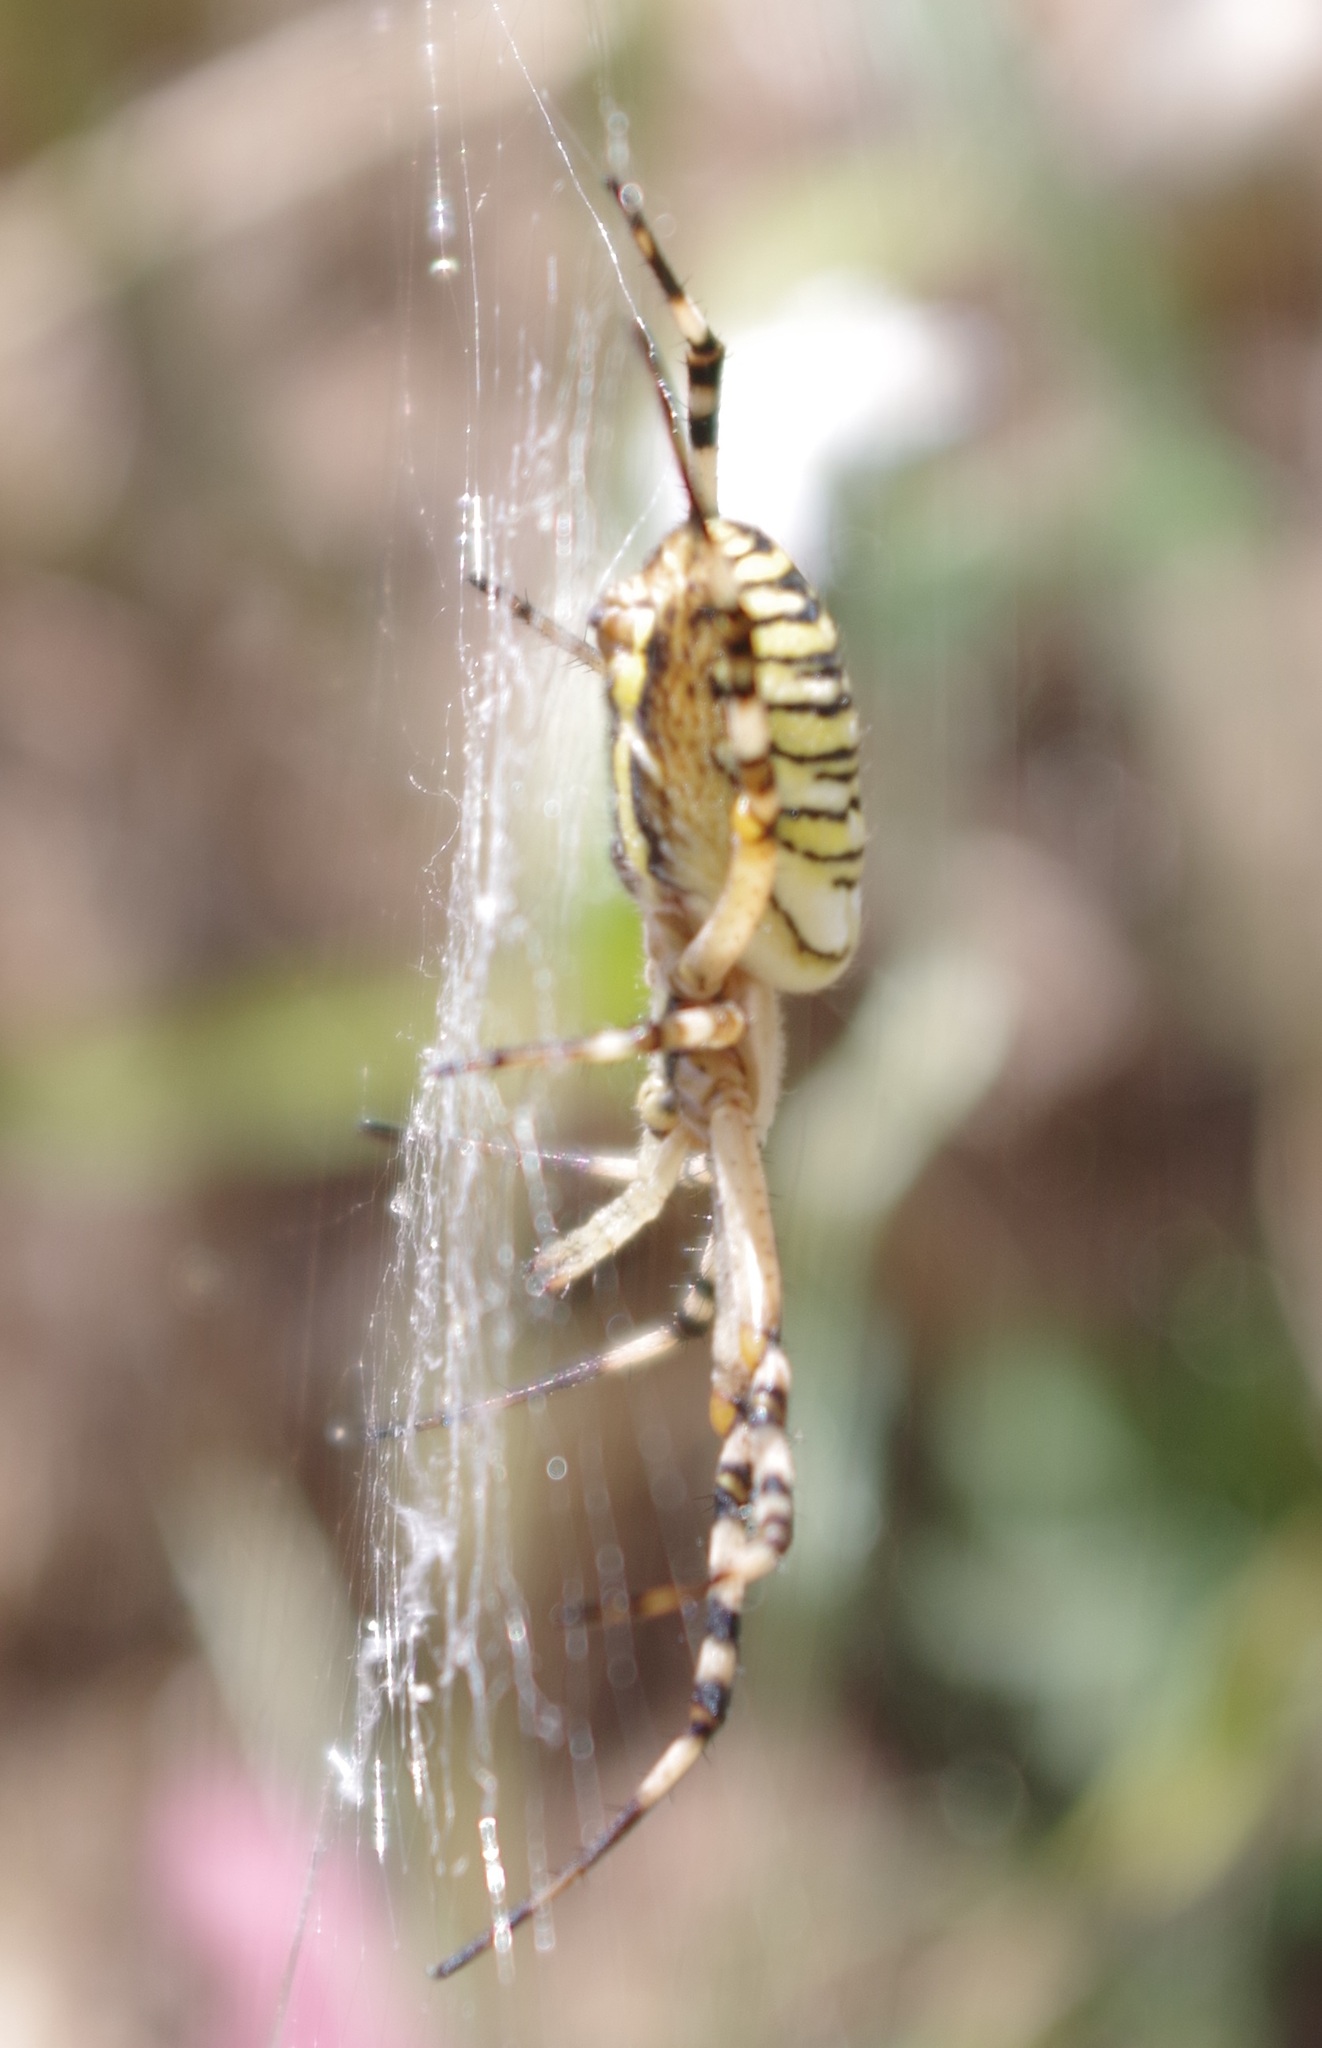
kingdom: Animalia
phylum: Arthropoda
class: Arachnida
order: Araneae
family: Araneidae
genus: Argiope
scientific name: Argiope bruennichi
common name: Wasp spider
